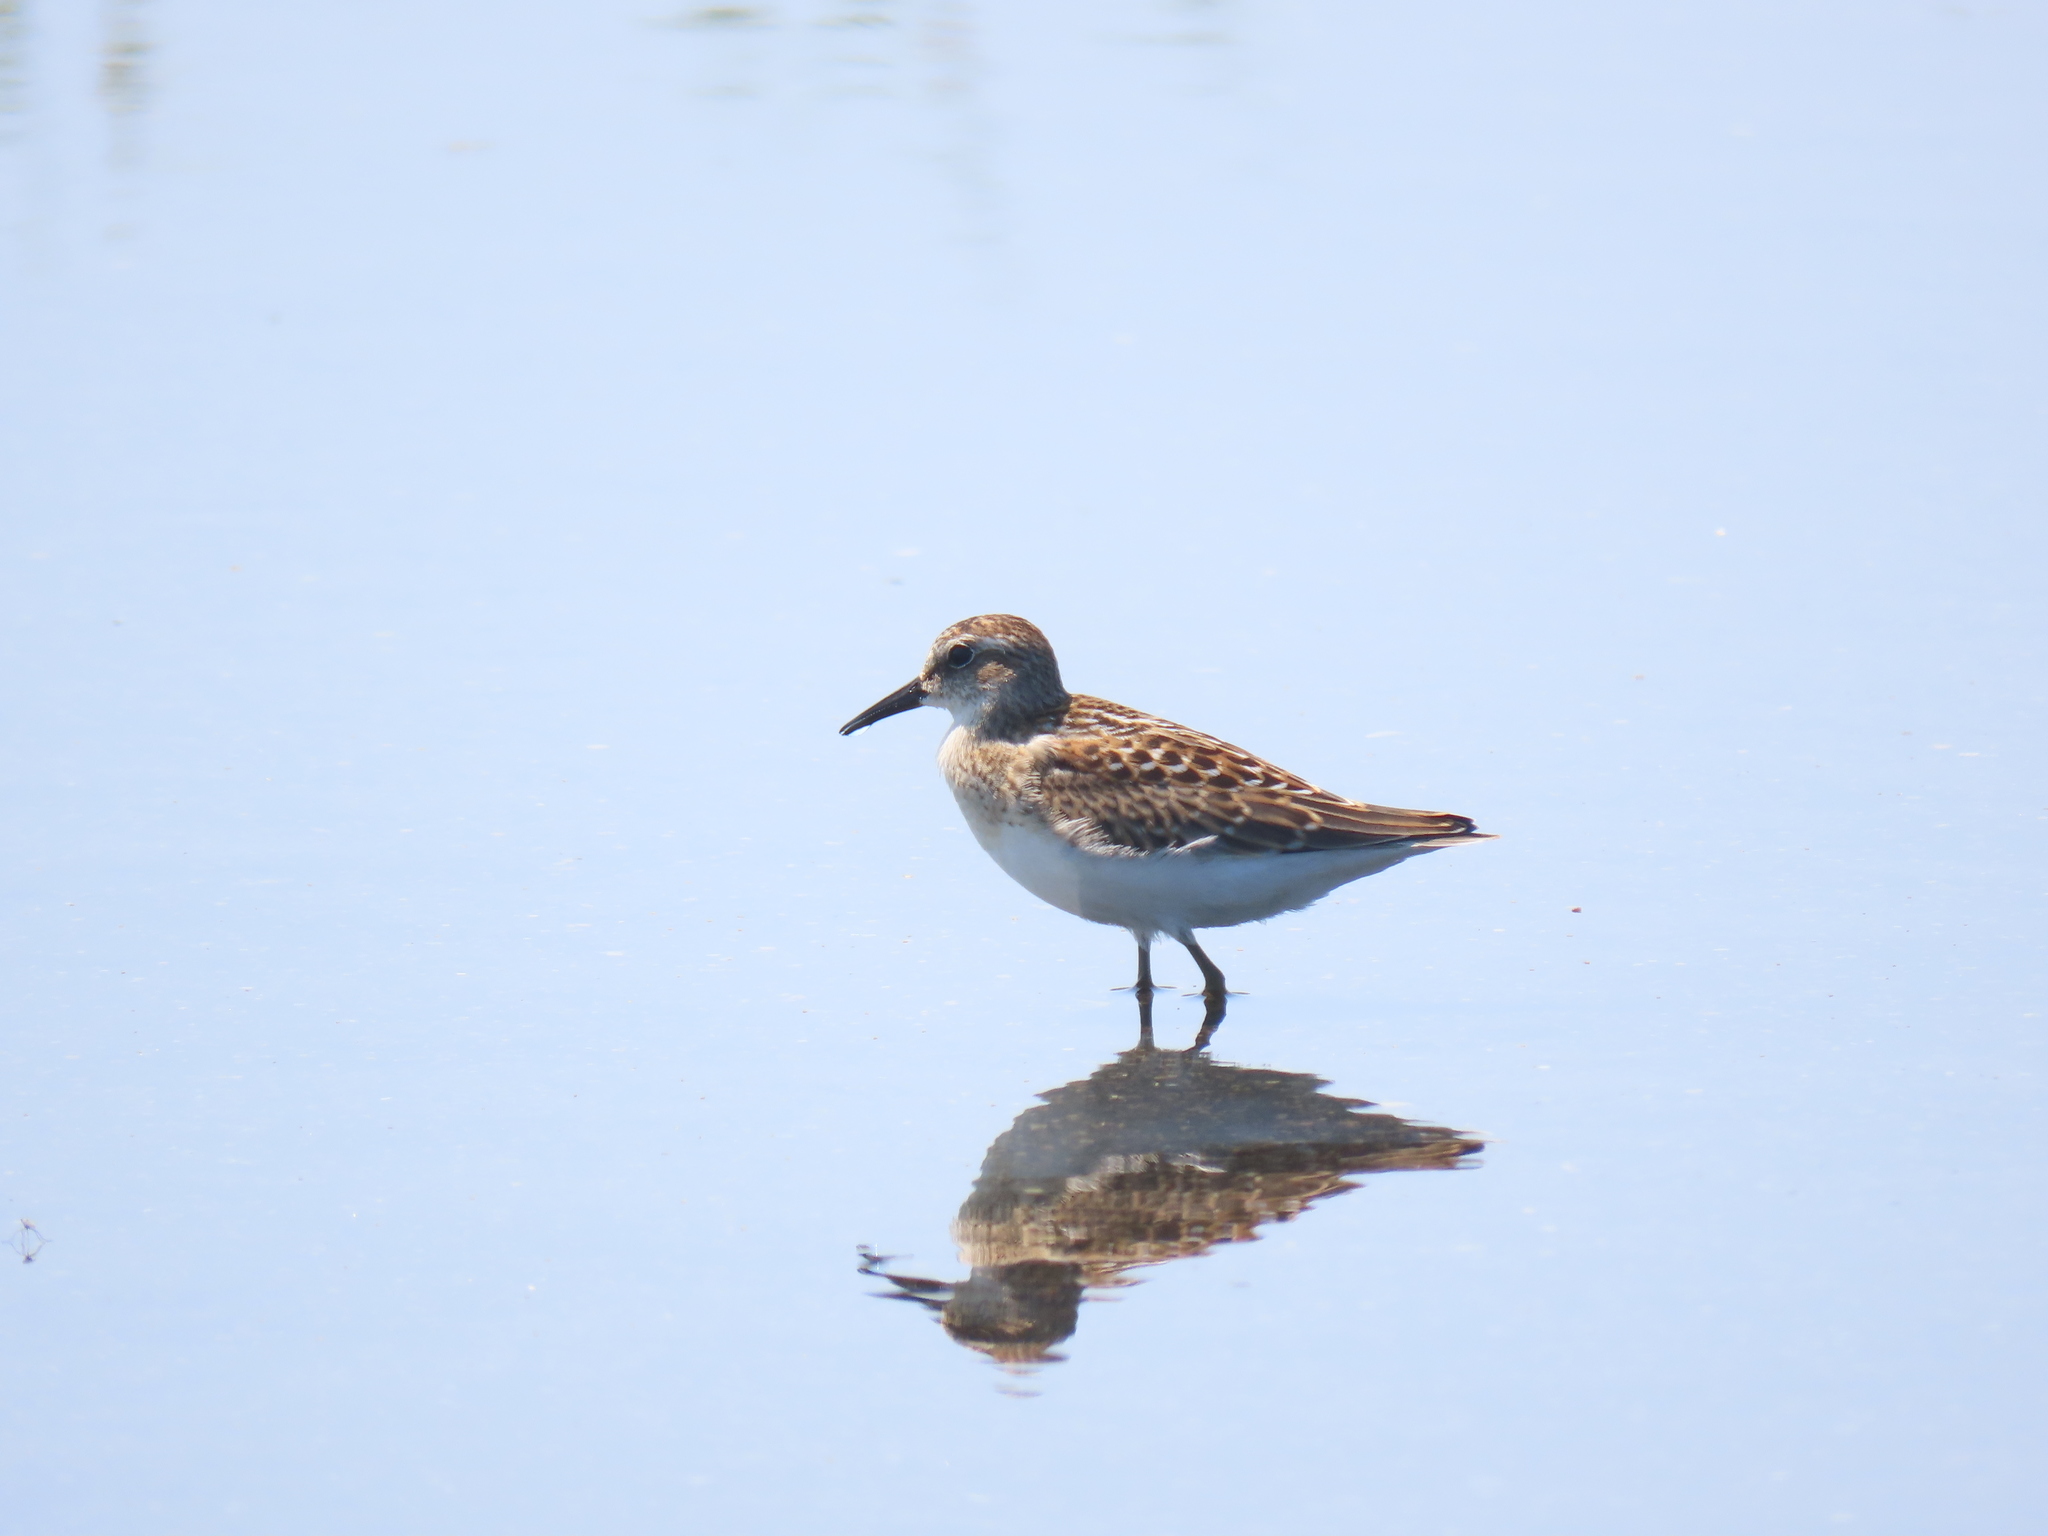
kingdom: Animalia
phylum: Chordata
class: Aves
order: Charadriiformes
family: Scolopacidae
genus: Calidris
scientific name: Calidris minutilla
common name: Least sandpiper
